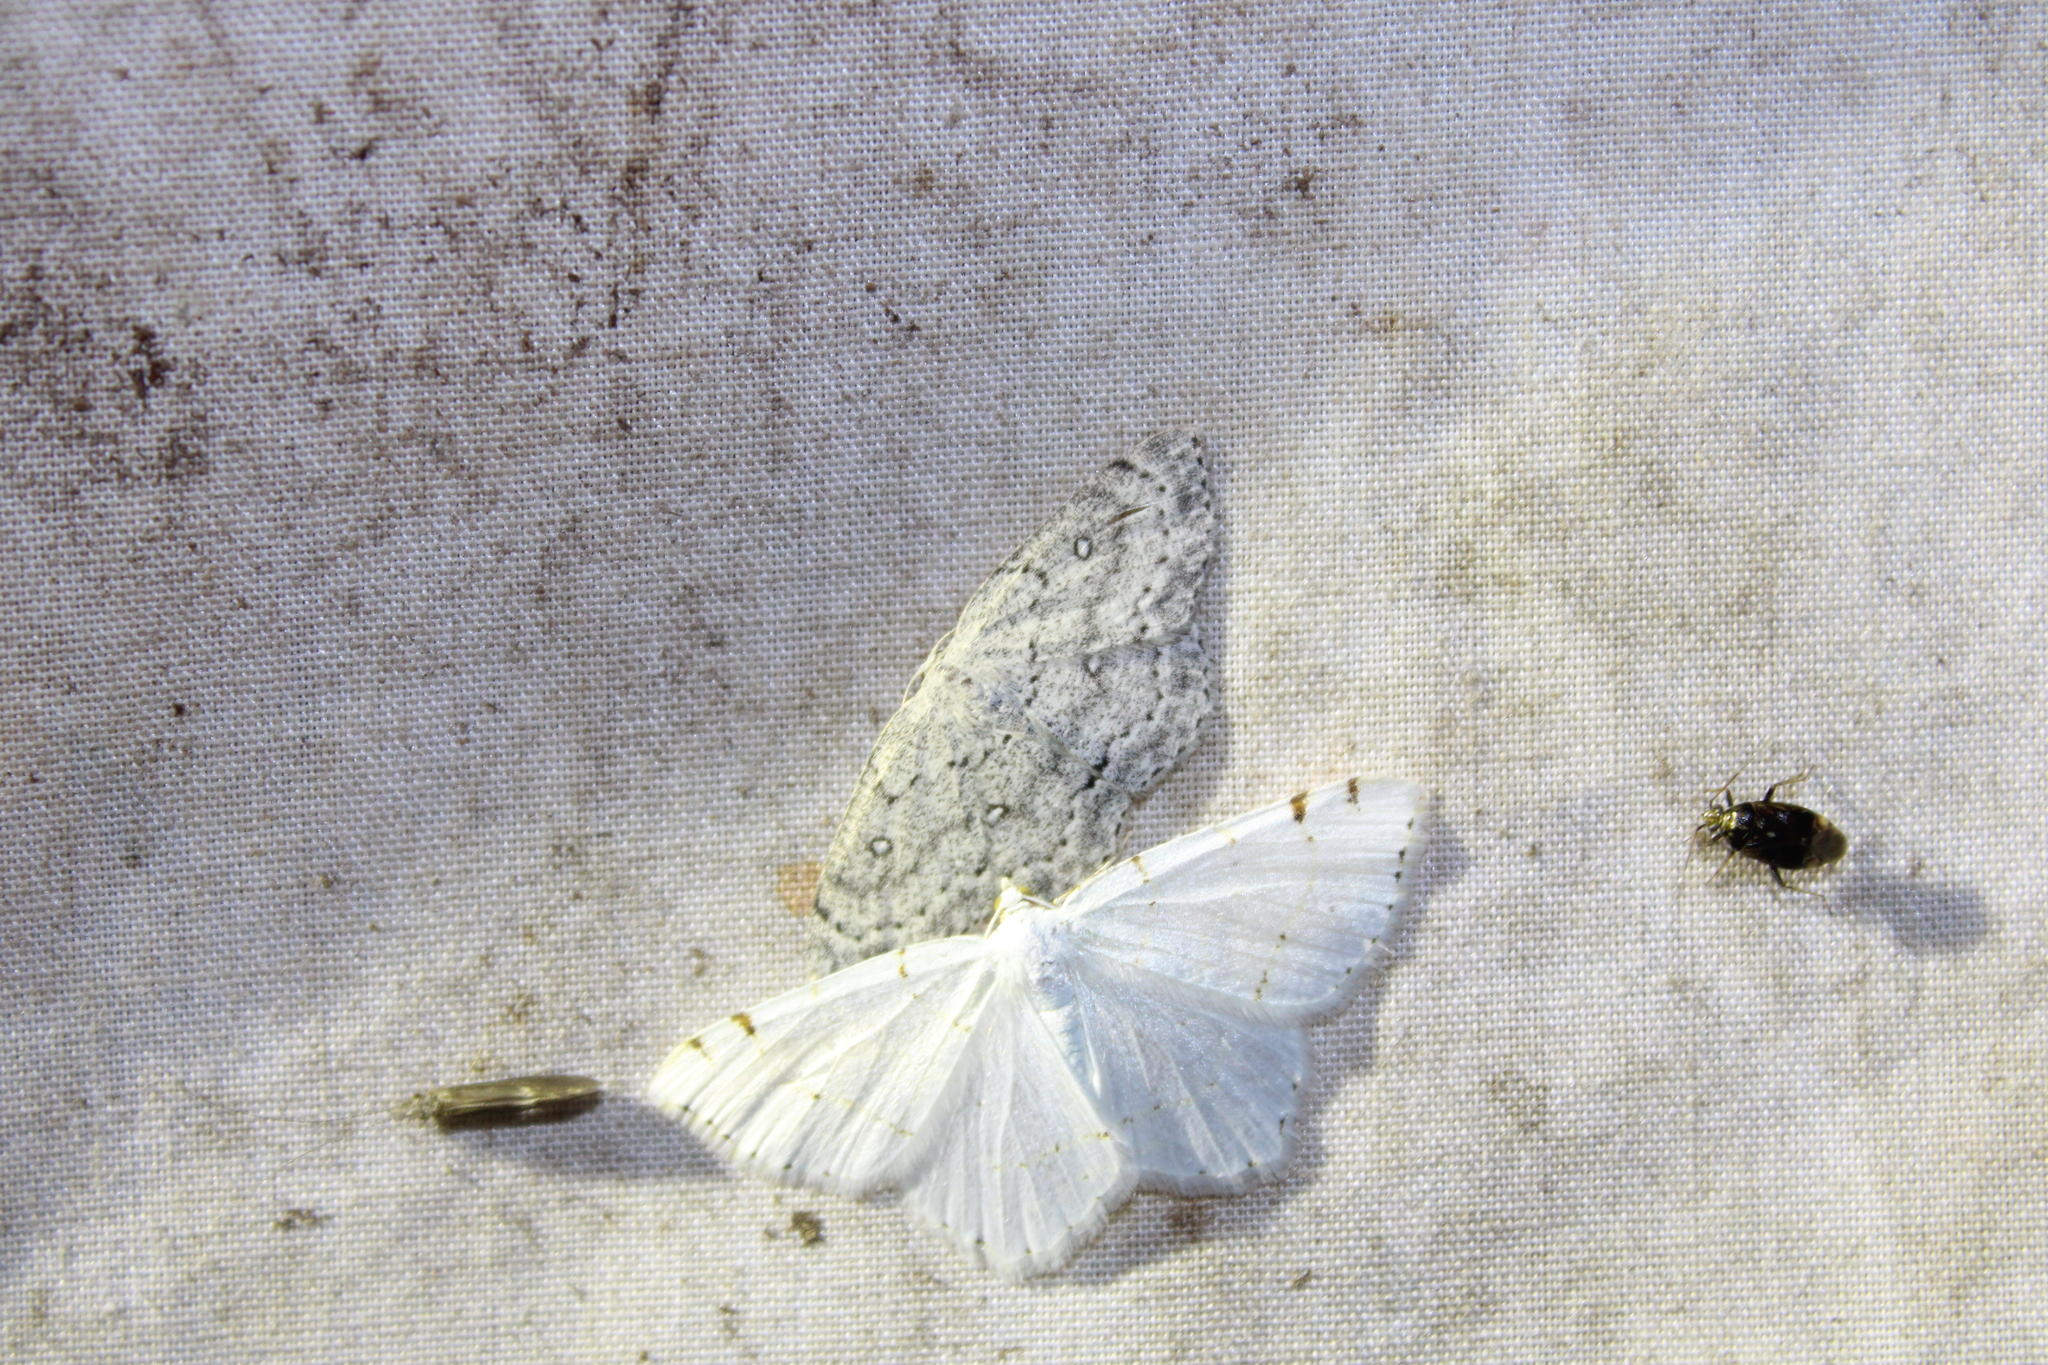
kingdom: Animalia
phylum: Arthropoda
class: Insecta
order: Lepidoptera
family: Geometridae
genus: Macaria
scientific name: Macaria pustularia
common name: Lesser maple spanworm moth
